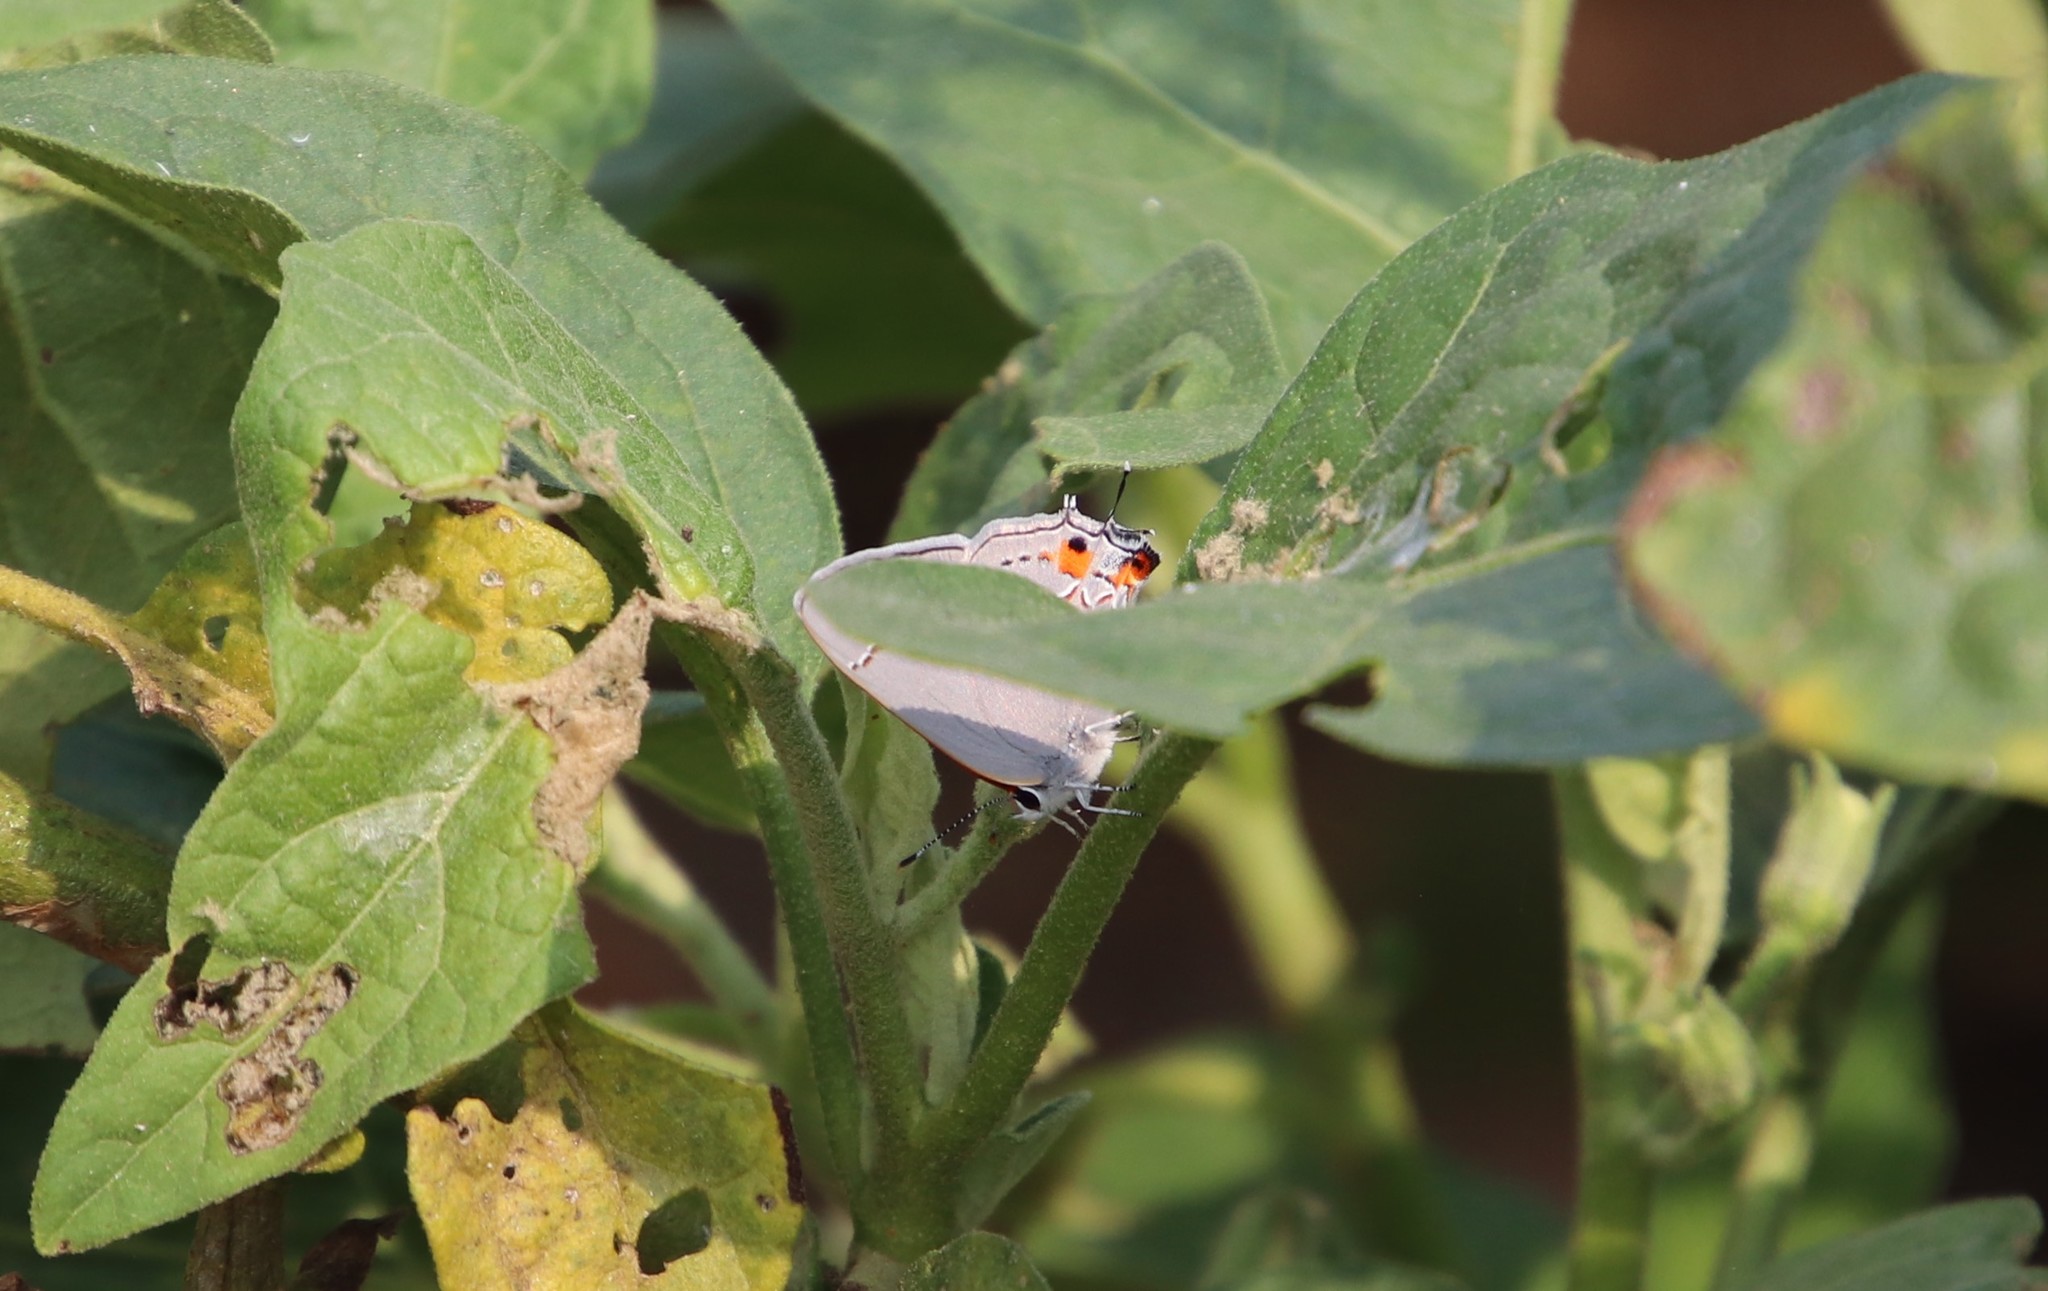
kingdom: Animalia
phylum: Arthropoda
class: Insecta
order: Lepidoptera
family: Lycaenidae
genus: Strymon
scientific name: Strymon melinus
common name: Gray hairstreak
